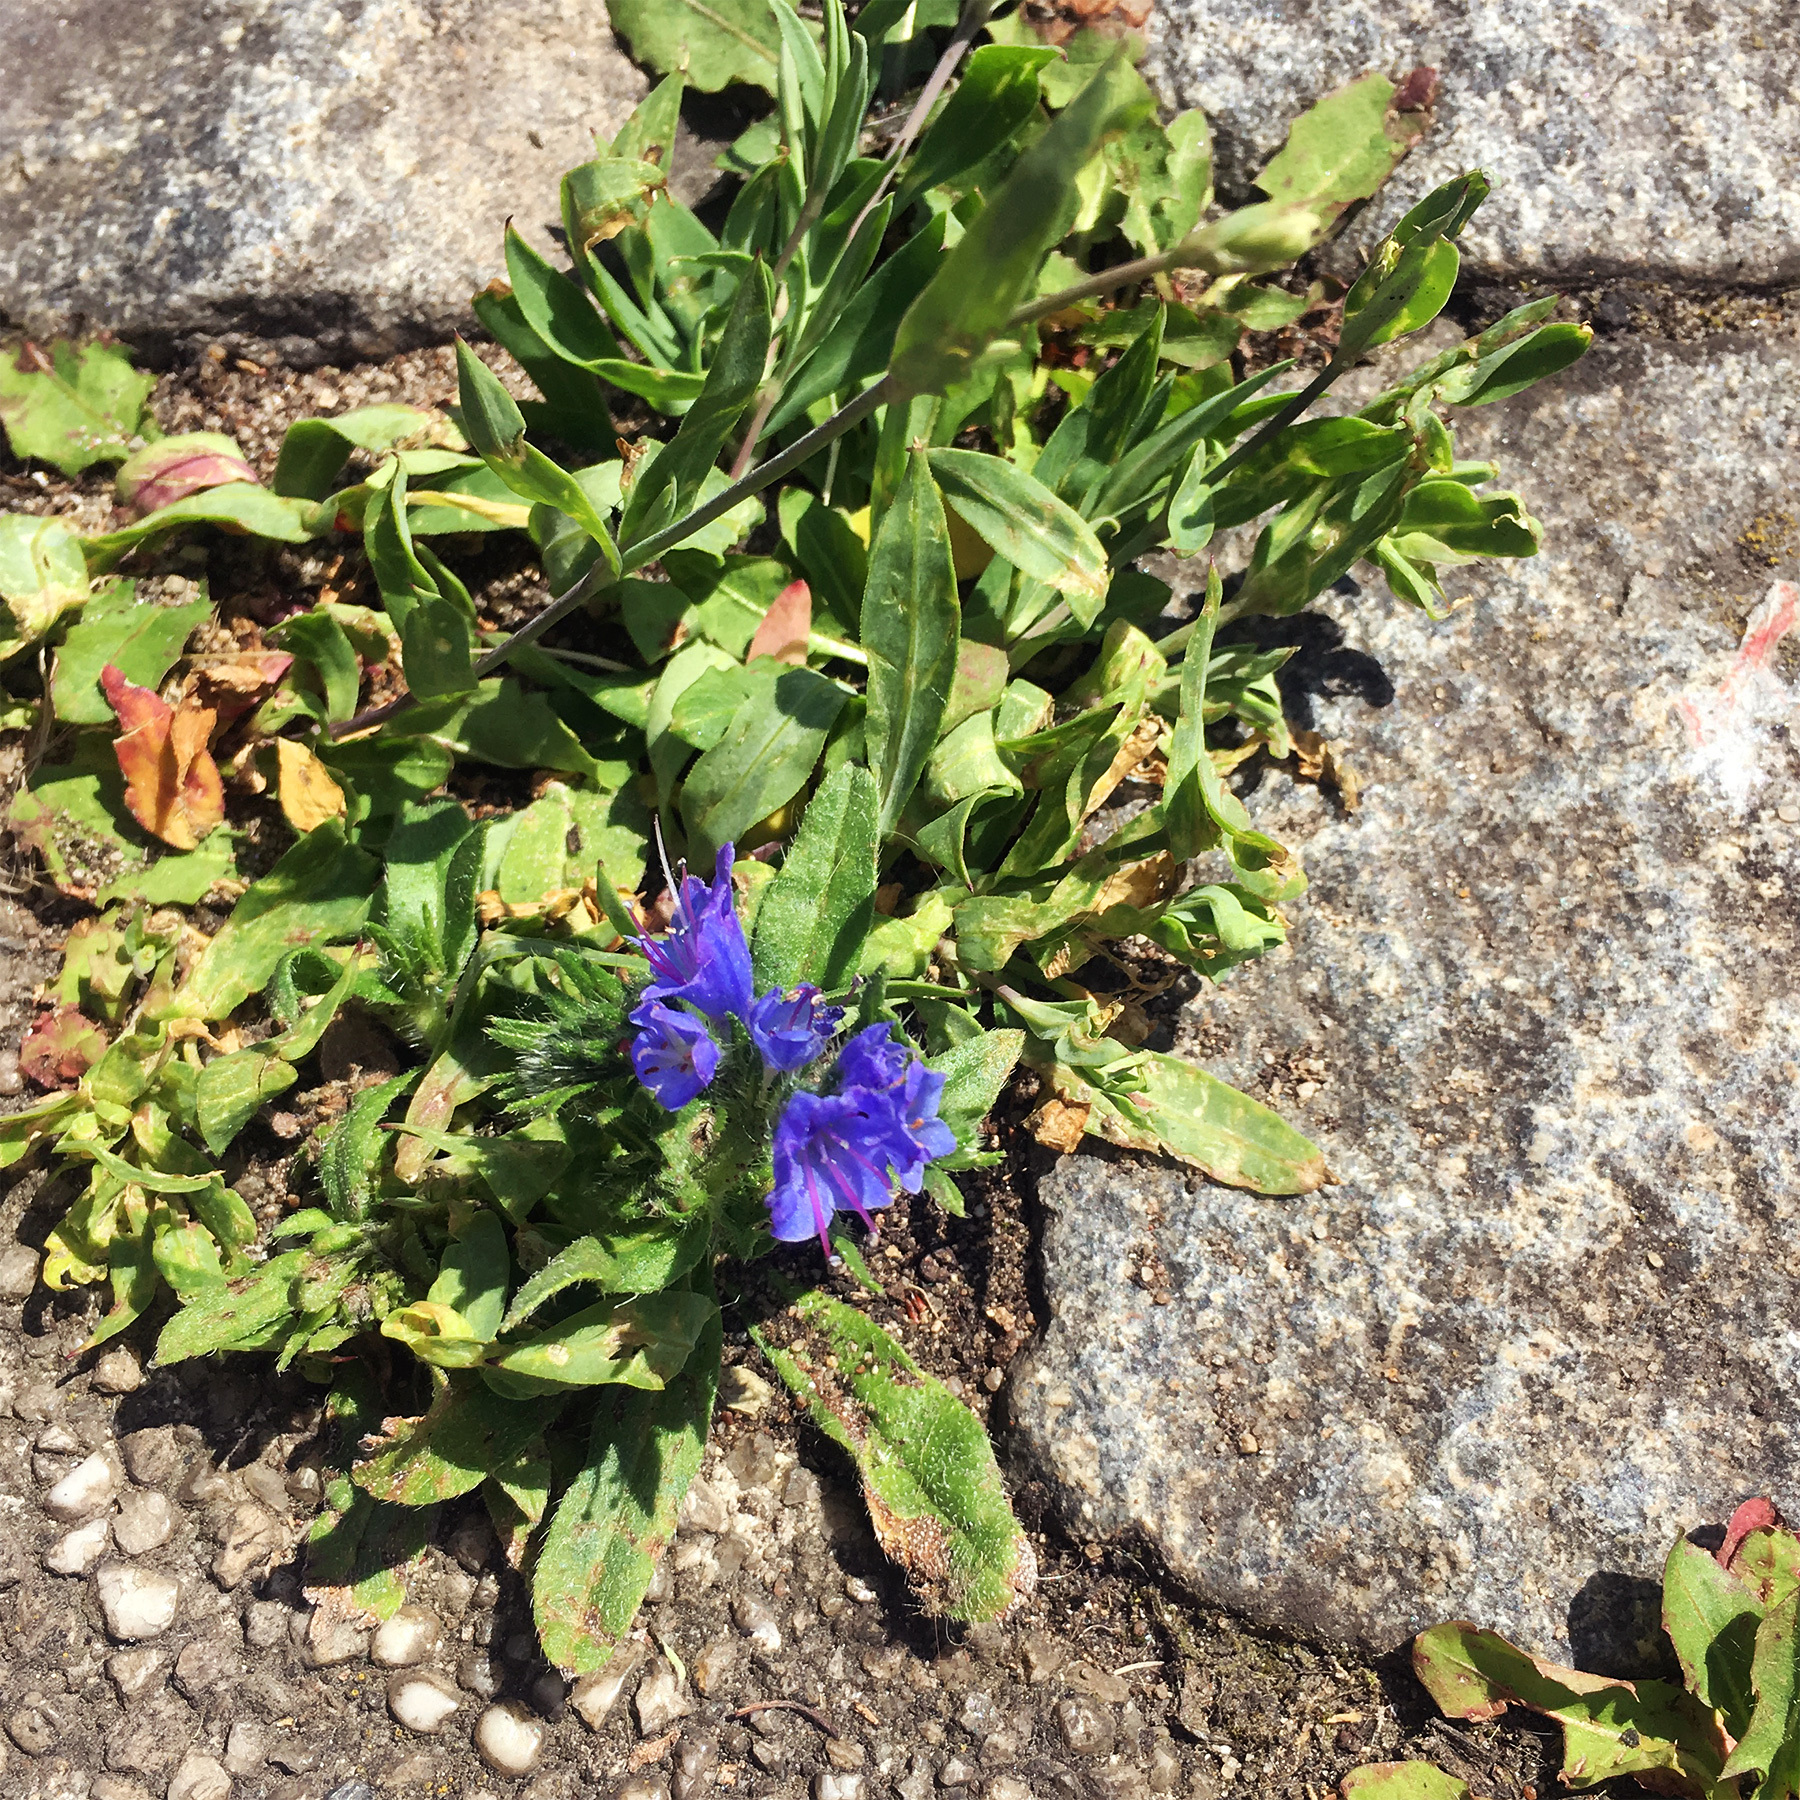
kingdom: Plantae
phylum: Tracheophyta
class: Magnoliopsida
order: Boraginales
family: Boraginaceae
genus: Echium
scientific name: Echium vulgare
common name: Common viper's bugloss
